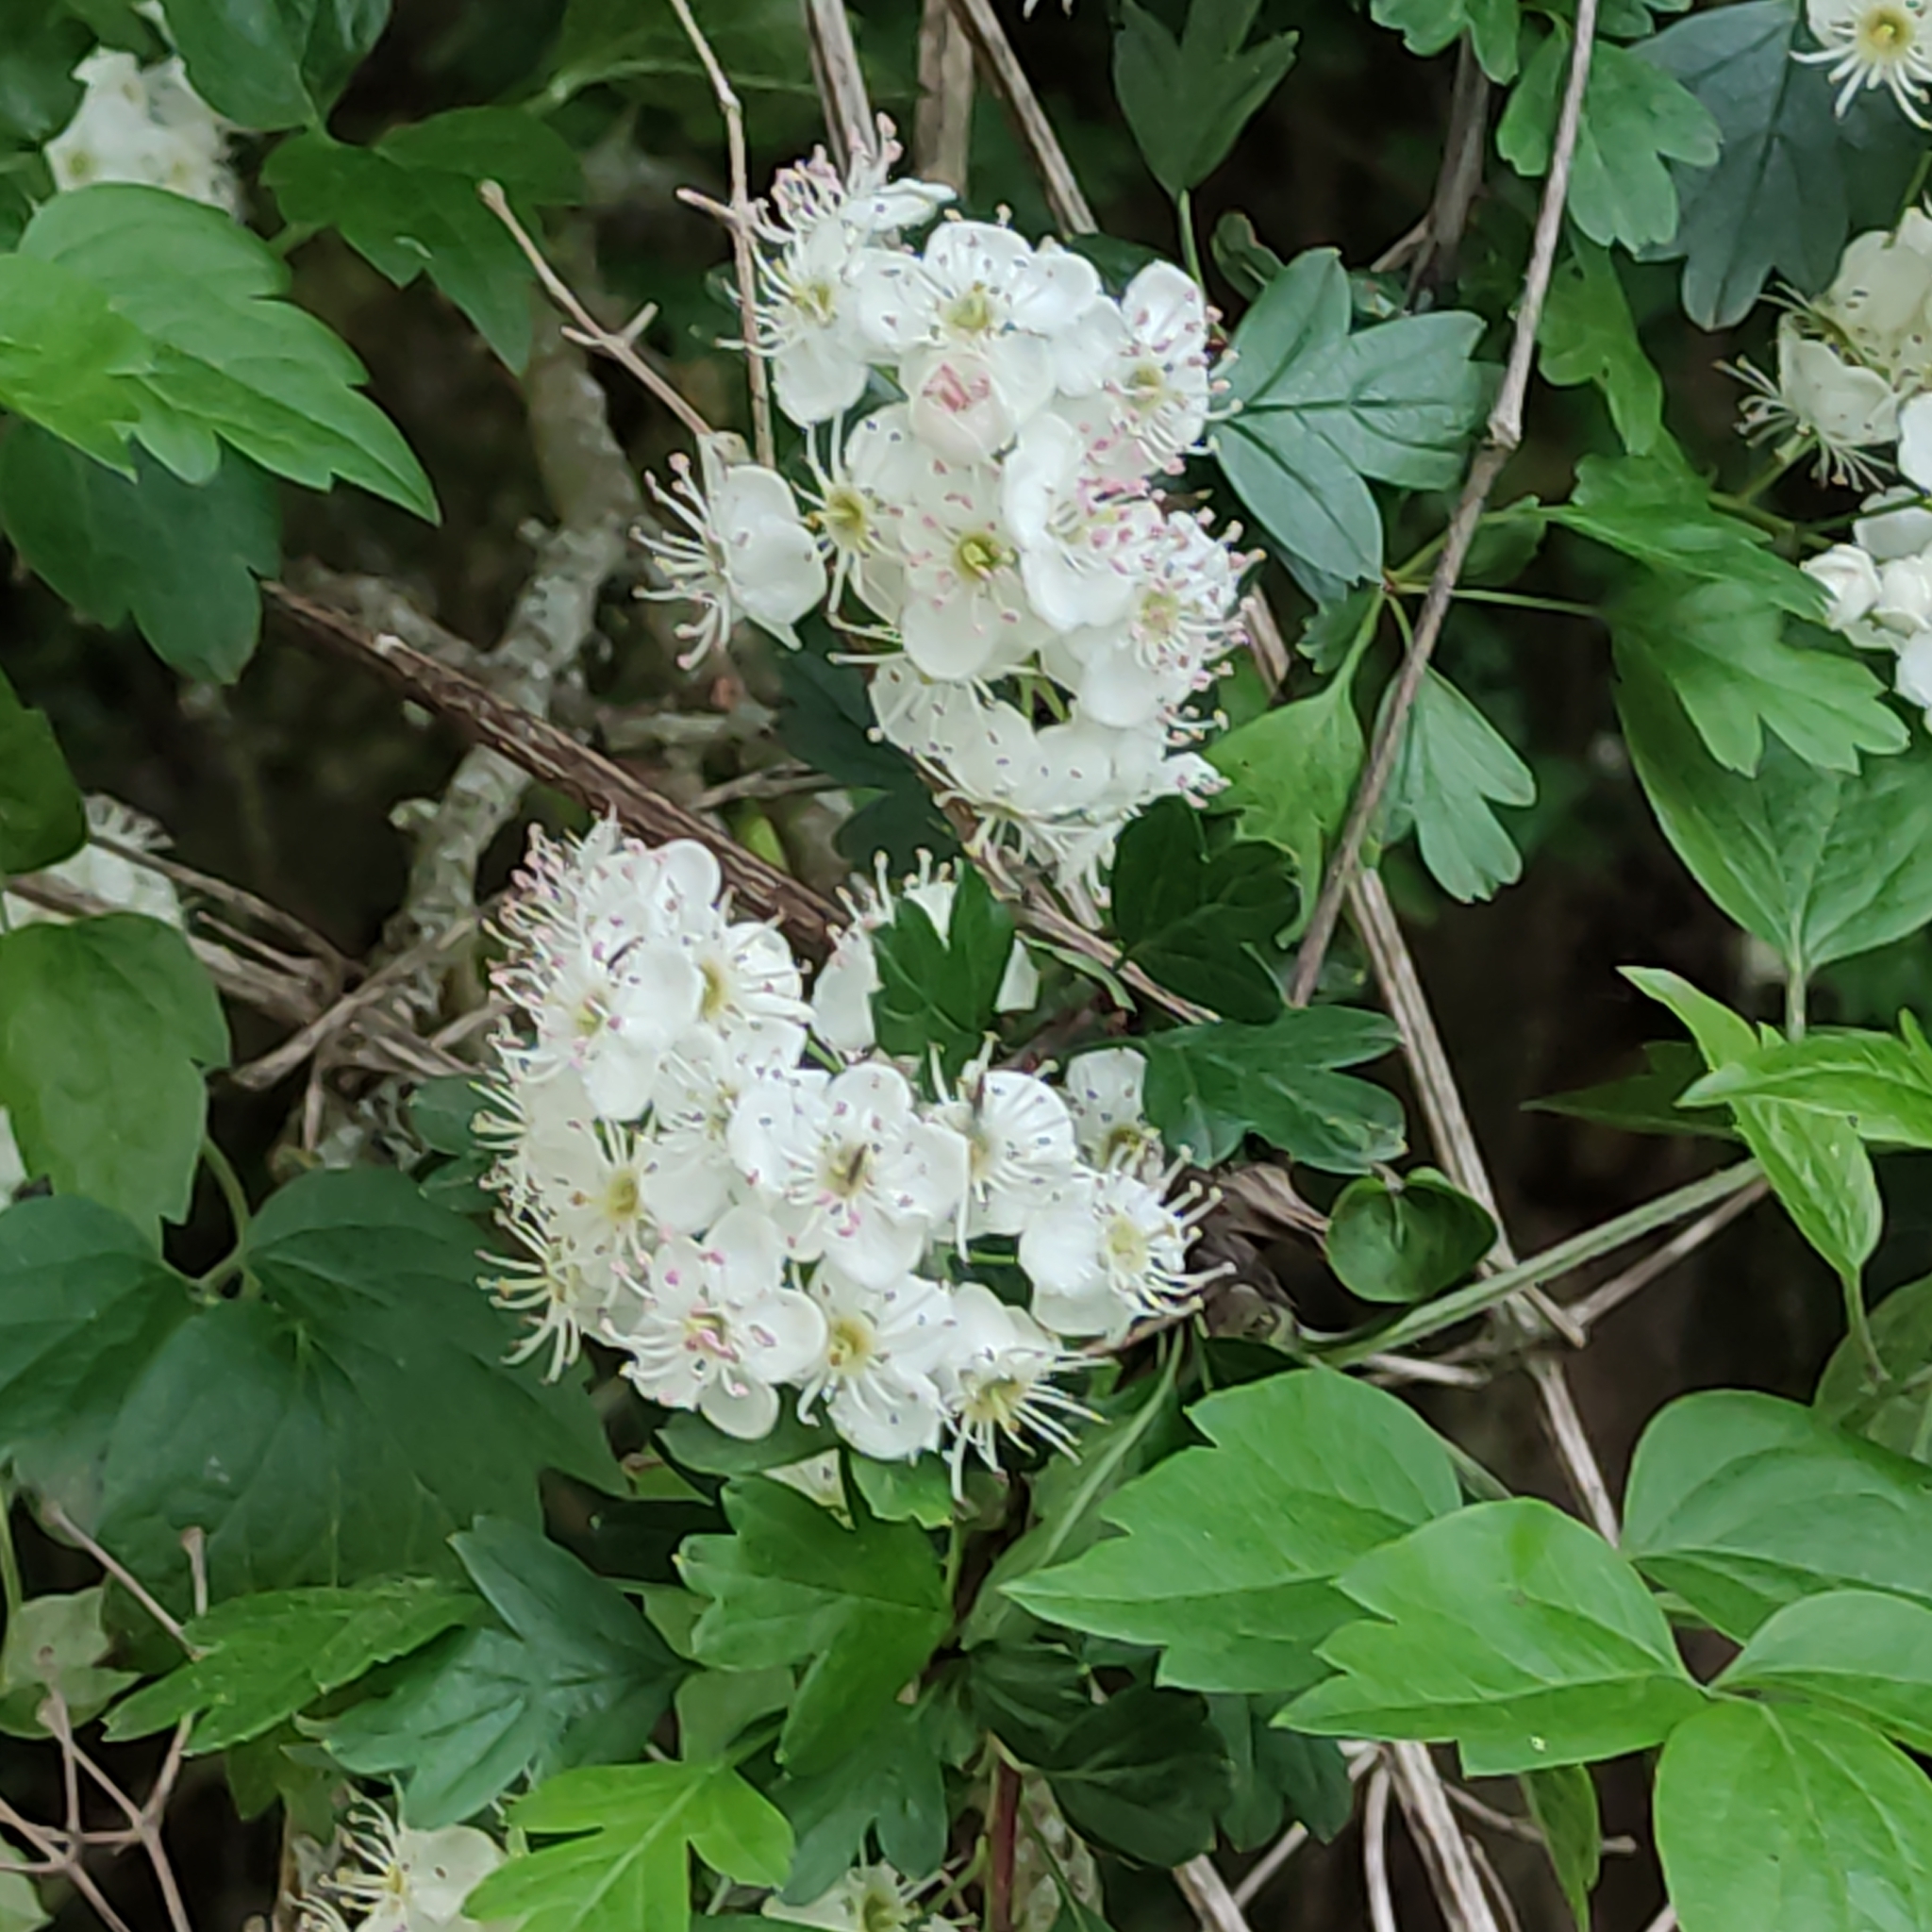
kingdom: Plantae
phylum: Tracheophyta
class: Magnoliopsida
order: Rosales
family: Rosaceae
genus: Crataegus
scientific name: Crataegus monogyna
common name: Hawthorn
